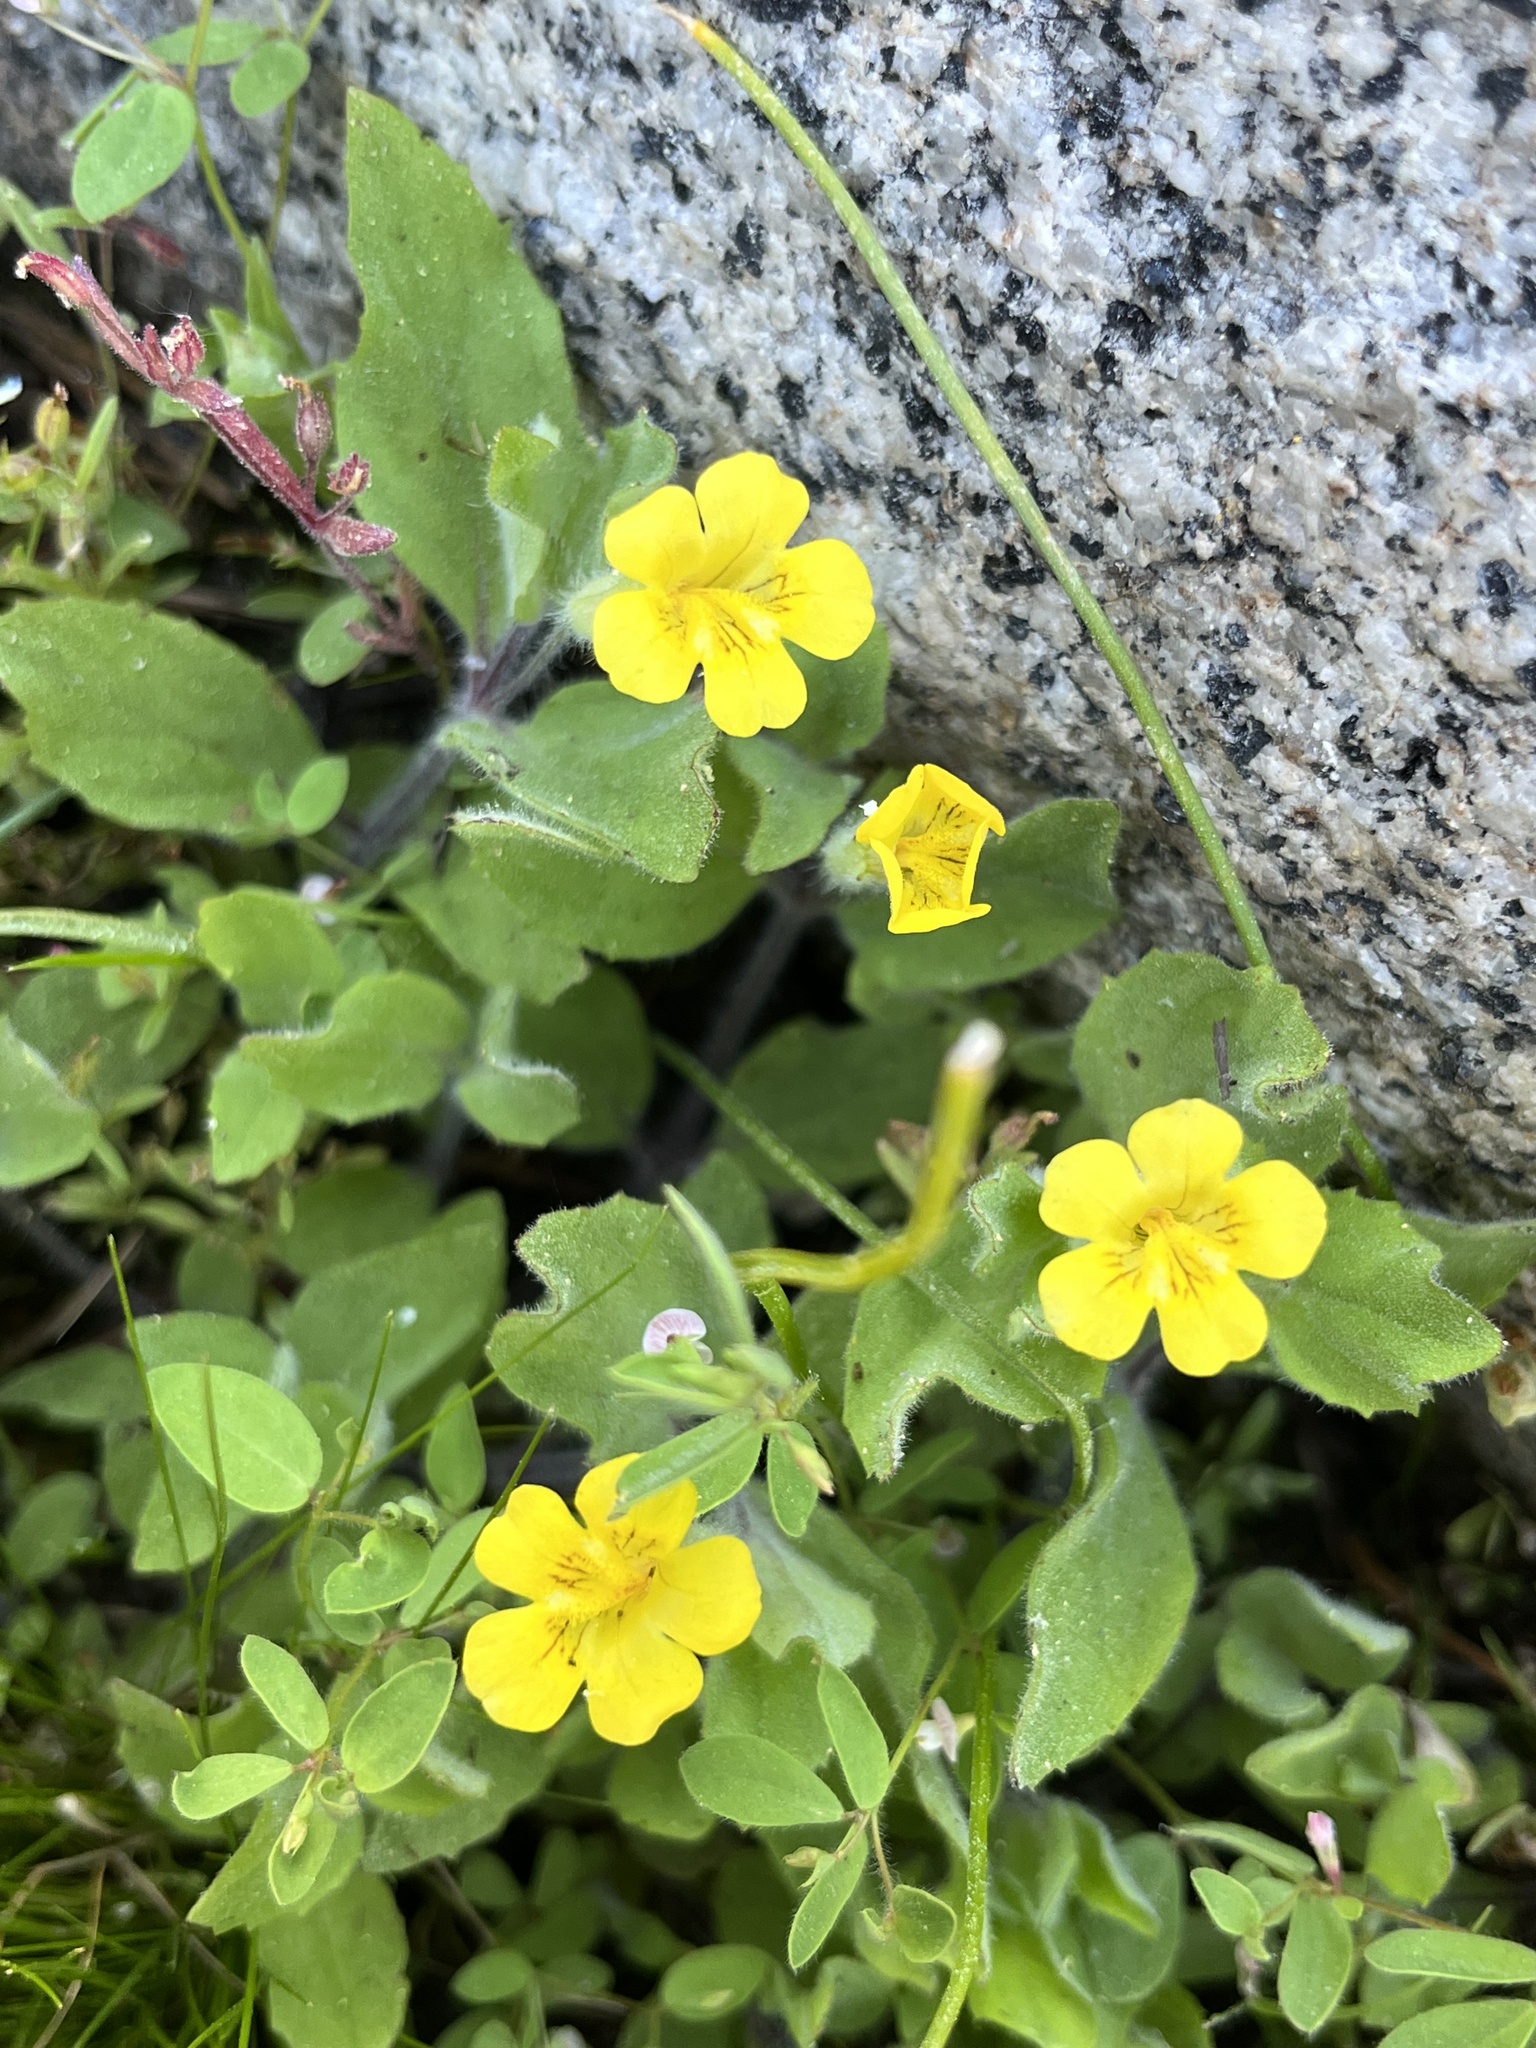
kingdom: Plantae
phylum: Tracheophyta
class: Magnoliopsida
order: Lamiales
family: Phrymaceae
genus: Erythranthe
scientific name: Erythranthe moschata
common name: Muskflower
